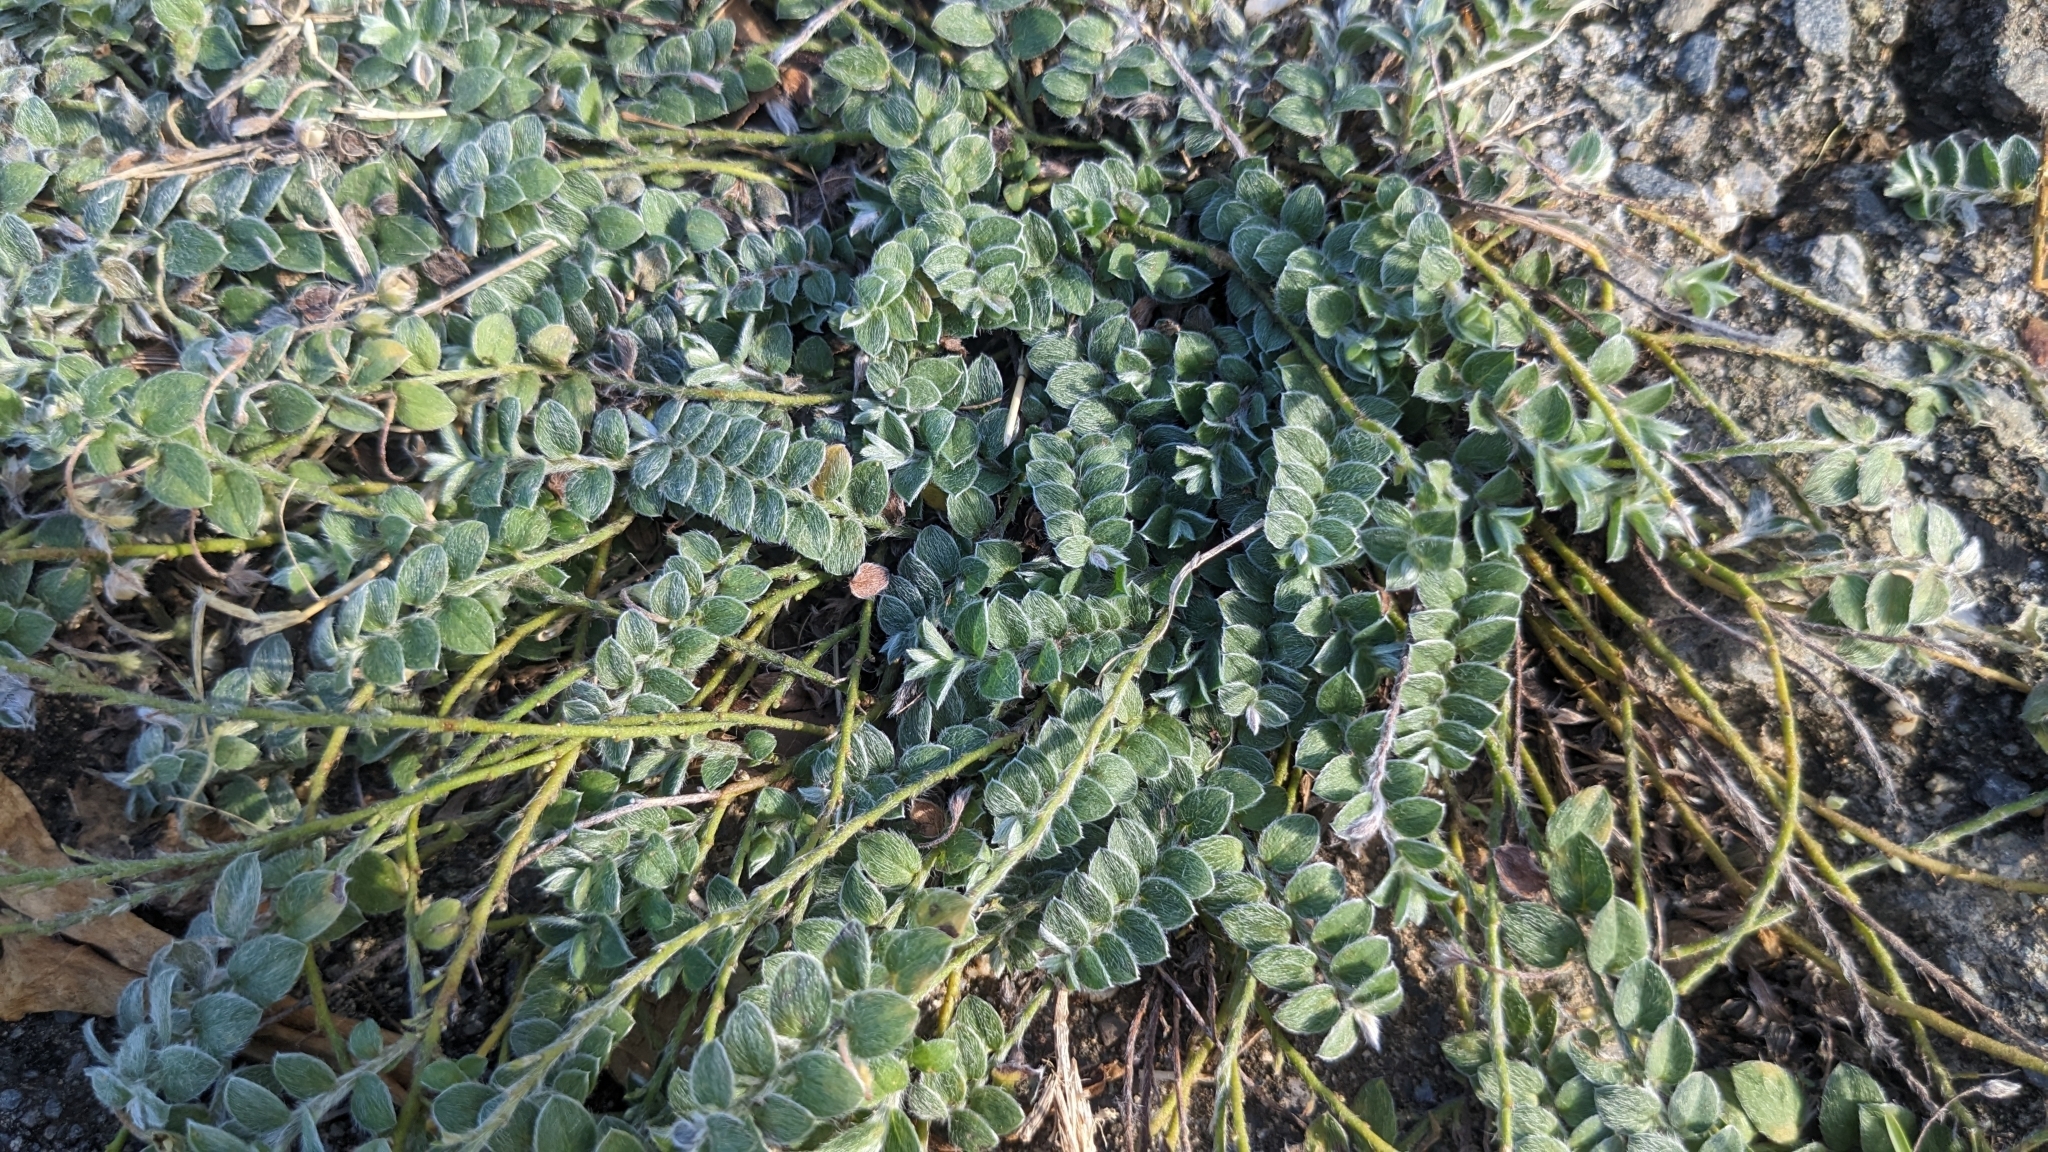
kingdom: Plantae
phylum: Tracheophyta
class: Magnoliopsida
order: Solanales
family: Convolvulaceae
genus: Evolvulus
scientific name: Evolvulus alsinoides
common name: Slender dwarf morning-glory
